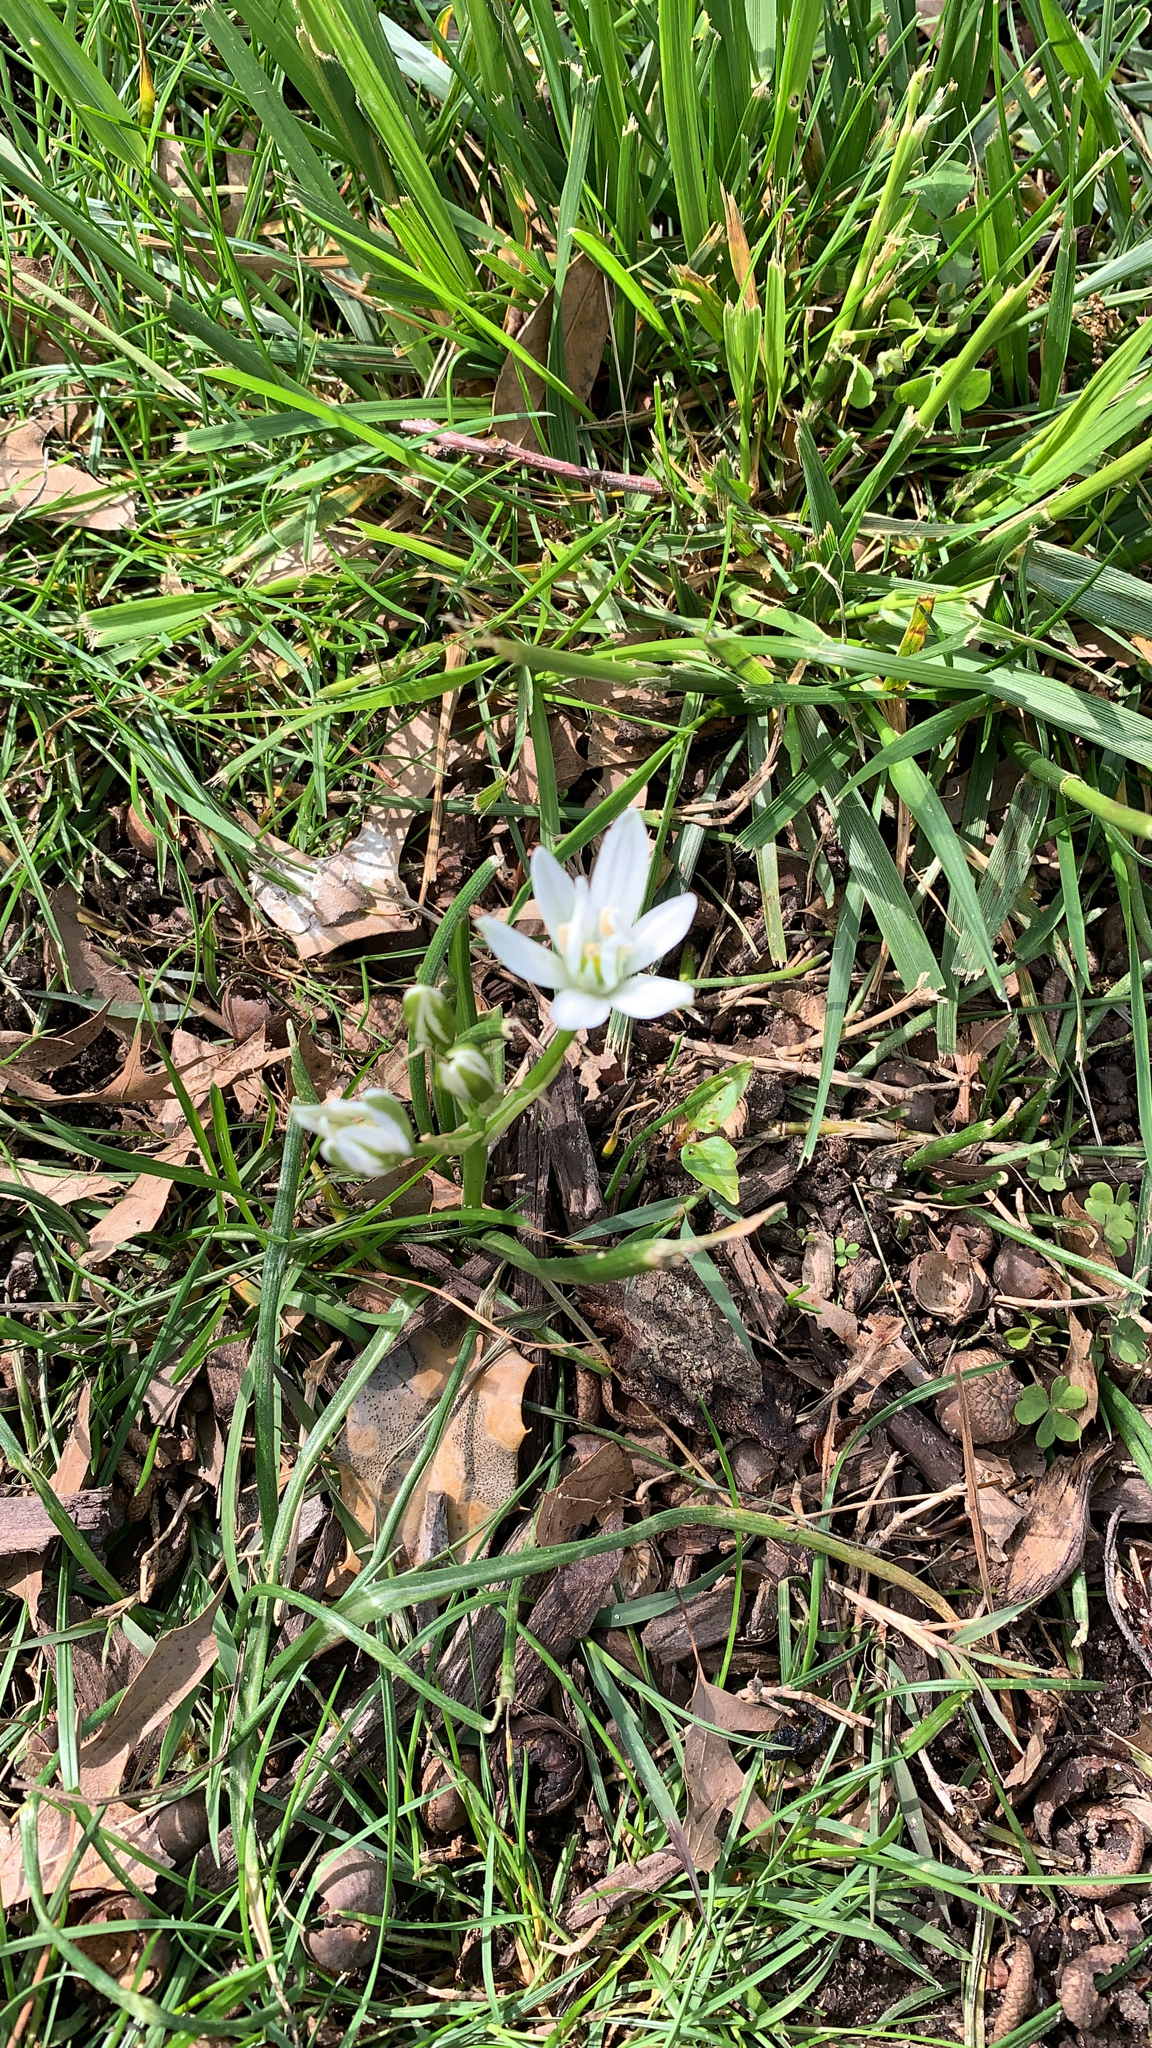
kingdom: Plantae
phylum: Tracheophyta
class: Liliopsida
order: Asparagales
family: Asparagaceae
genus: Ornithogalum
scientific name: Ornithogalum umbellatum
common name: Garden star-of-bethlehem
